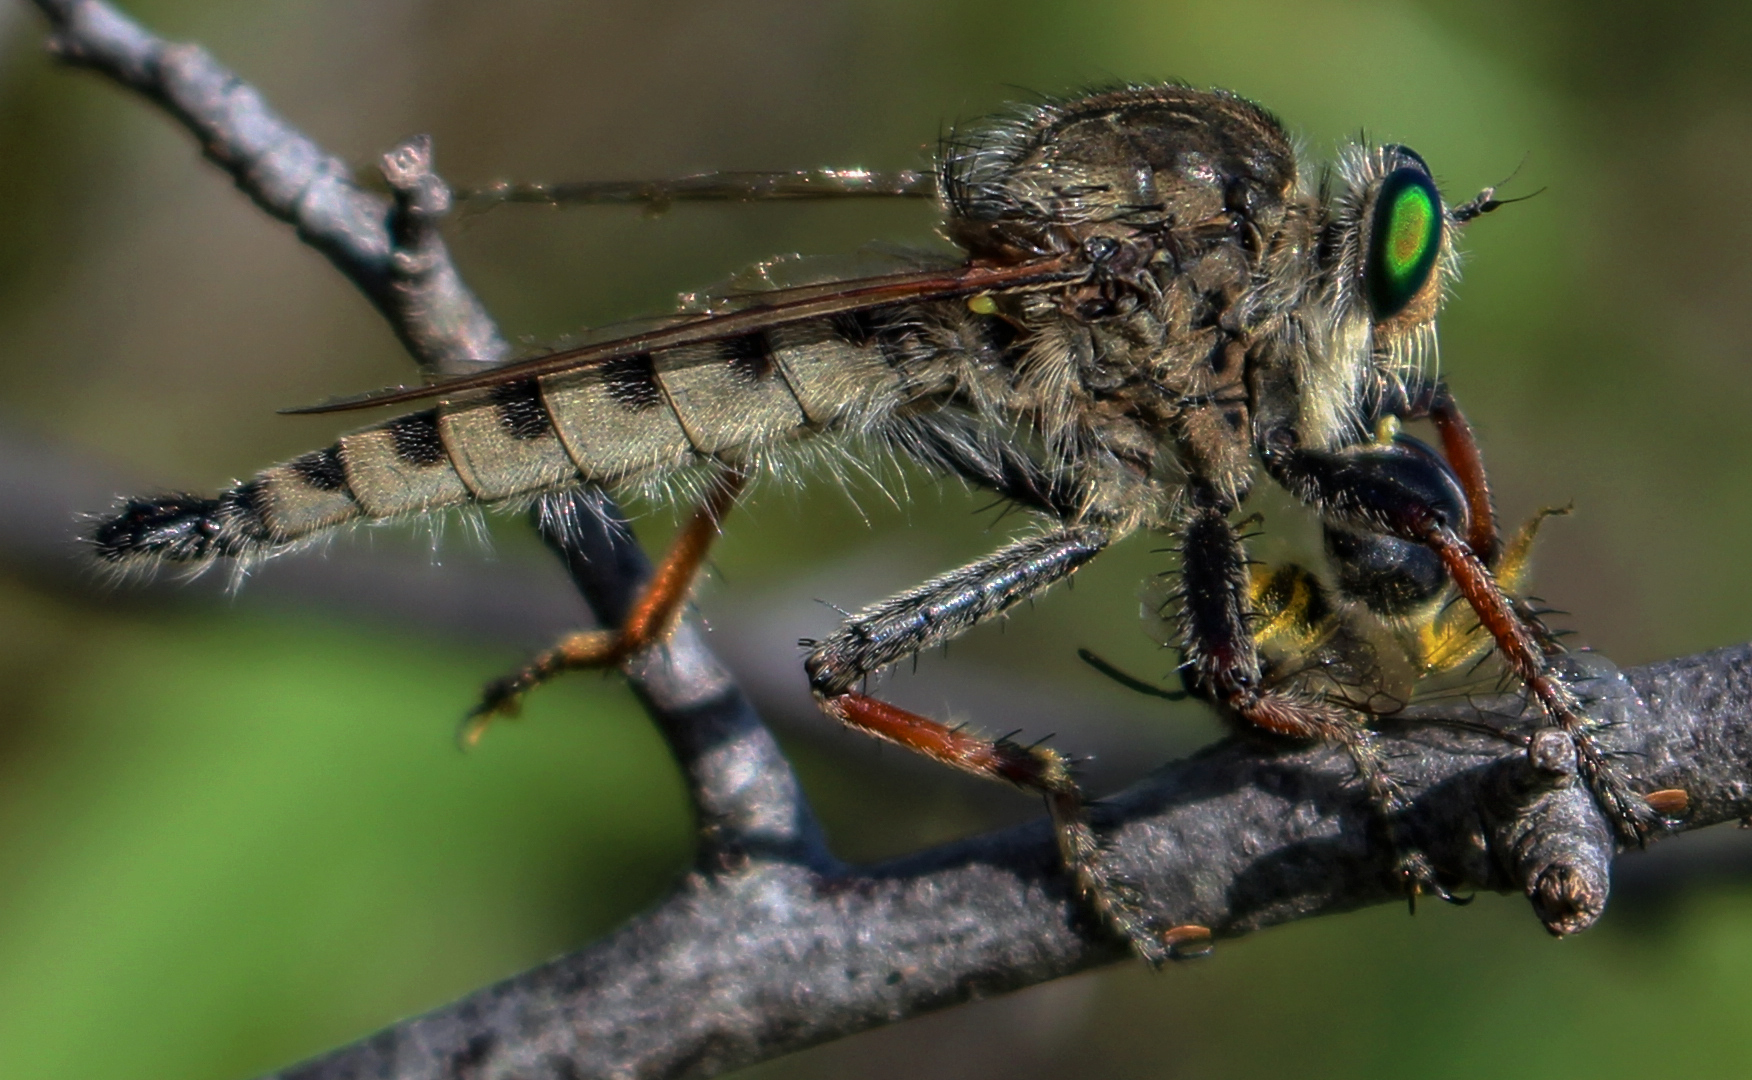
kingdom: Animalia
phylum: Arthropoda
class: Insecta
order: Diptera
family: Asilidae
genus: Promachus
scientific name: Promachus vertebratus
